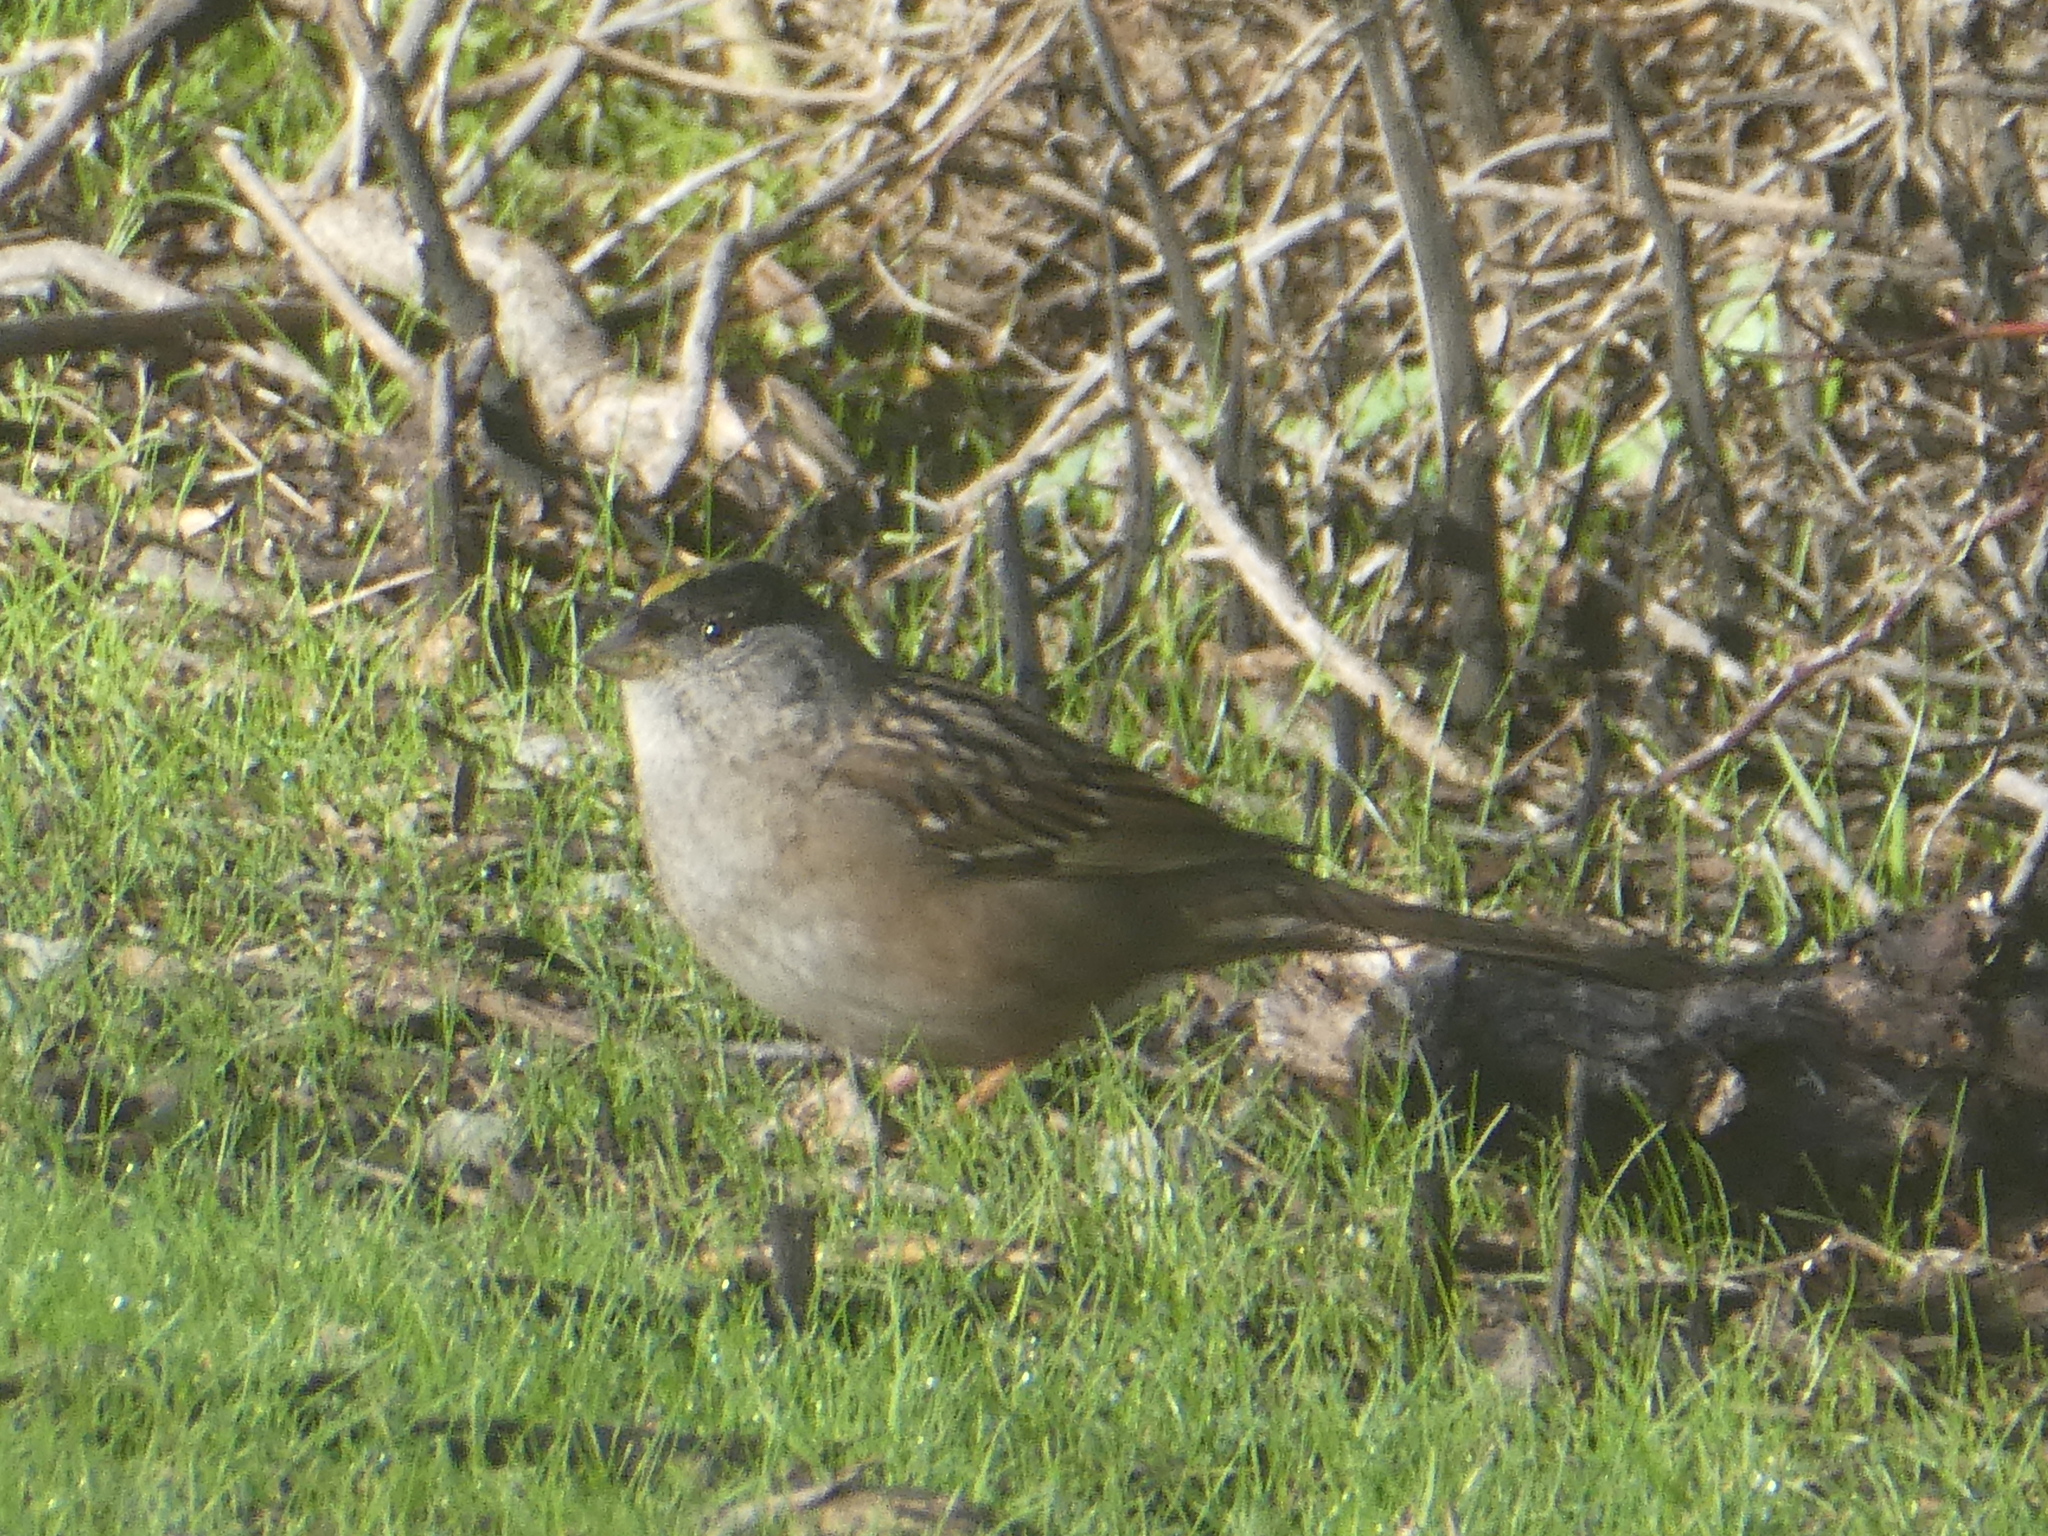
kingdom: Animalia
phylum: Chordata
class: Aves
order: Passeriformes
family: Passerellidae
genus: Zonotrichia
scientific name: Zonotrichia atricapilla
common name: Golden-crowned sparrow
